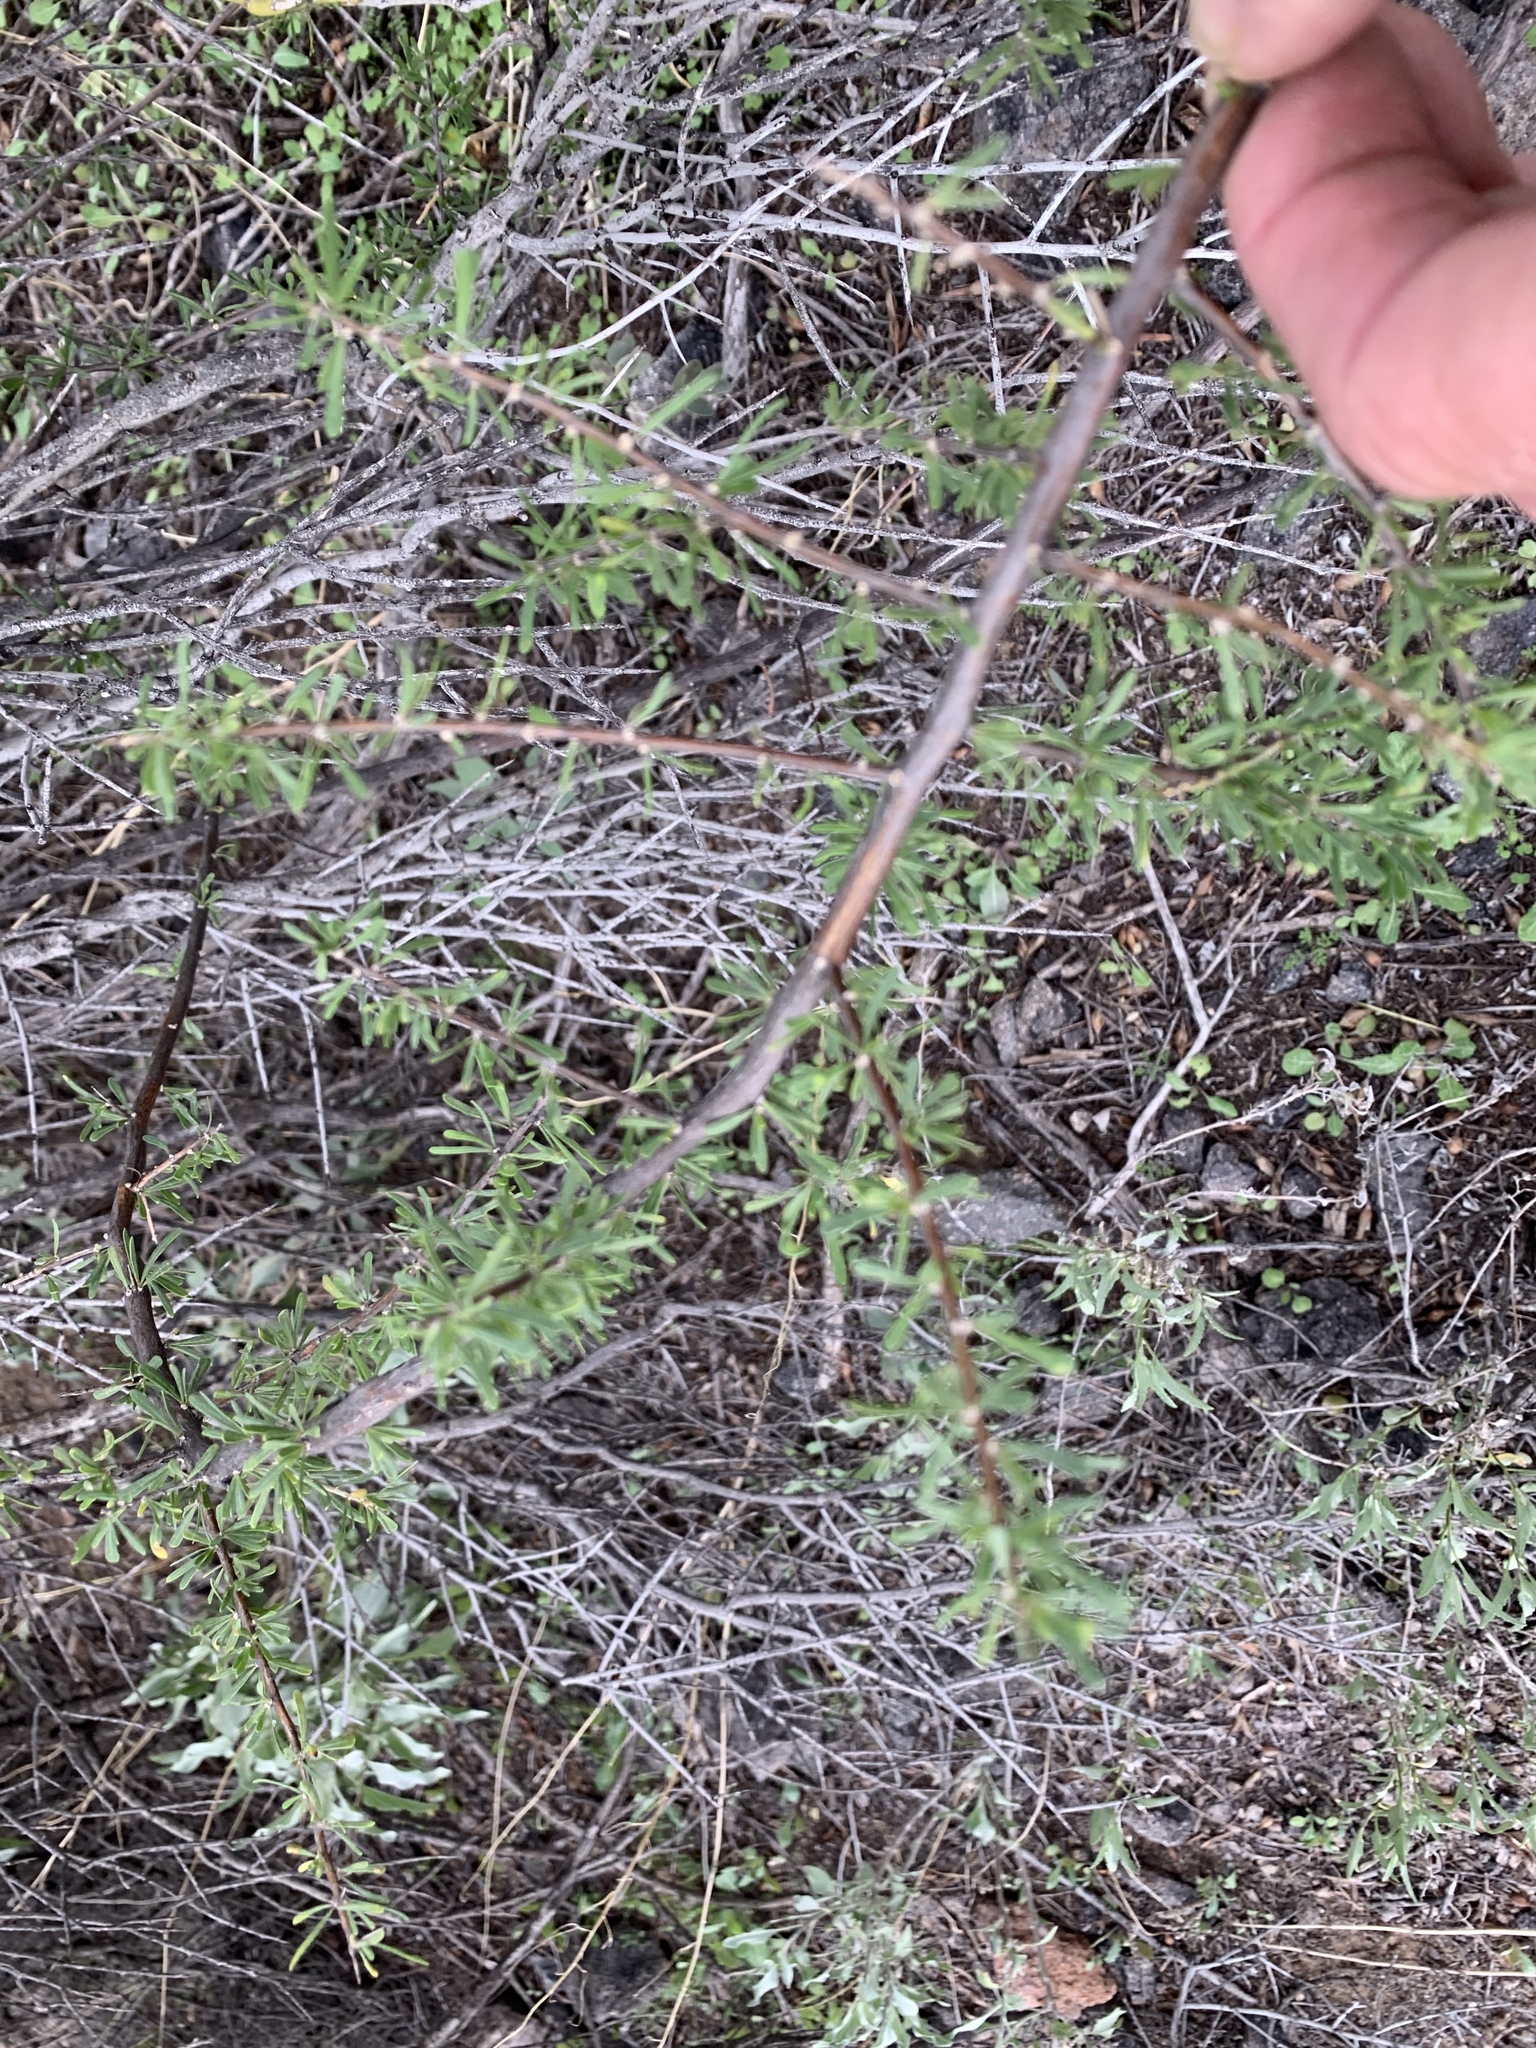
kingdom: Plantae
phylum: Tracheophyta
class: Magnoliopsida
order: Solanales
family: Solanaceae
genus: Lycium
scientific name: Lycium berlandieri
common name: Berlandier wolfberry
